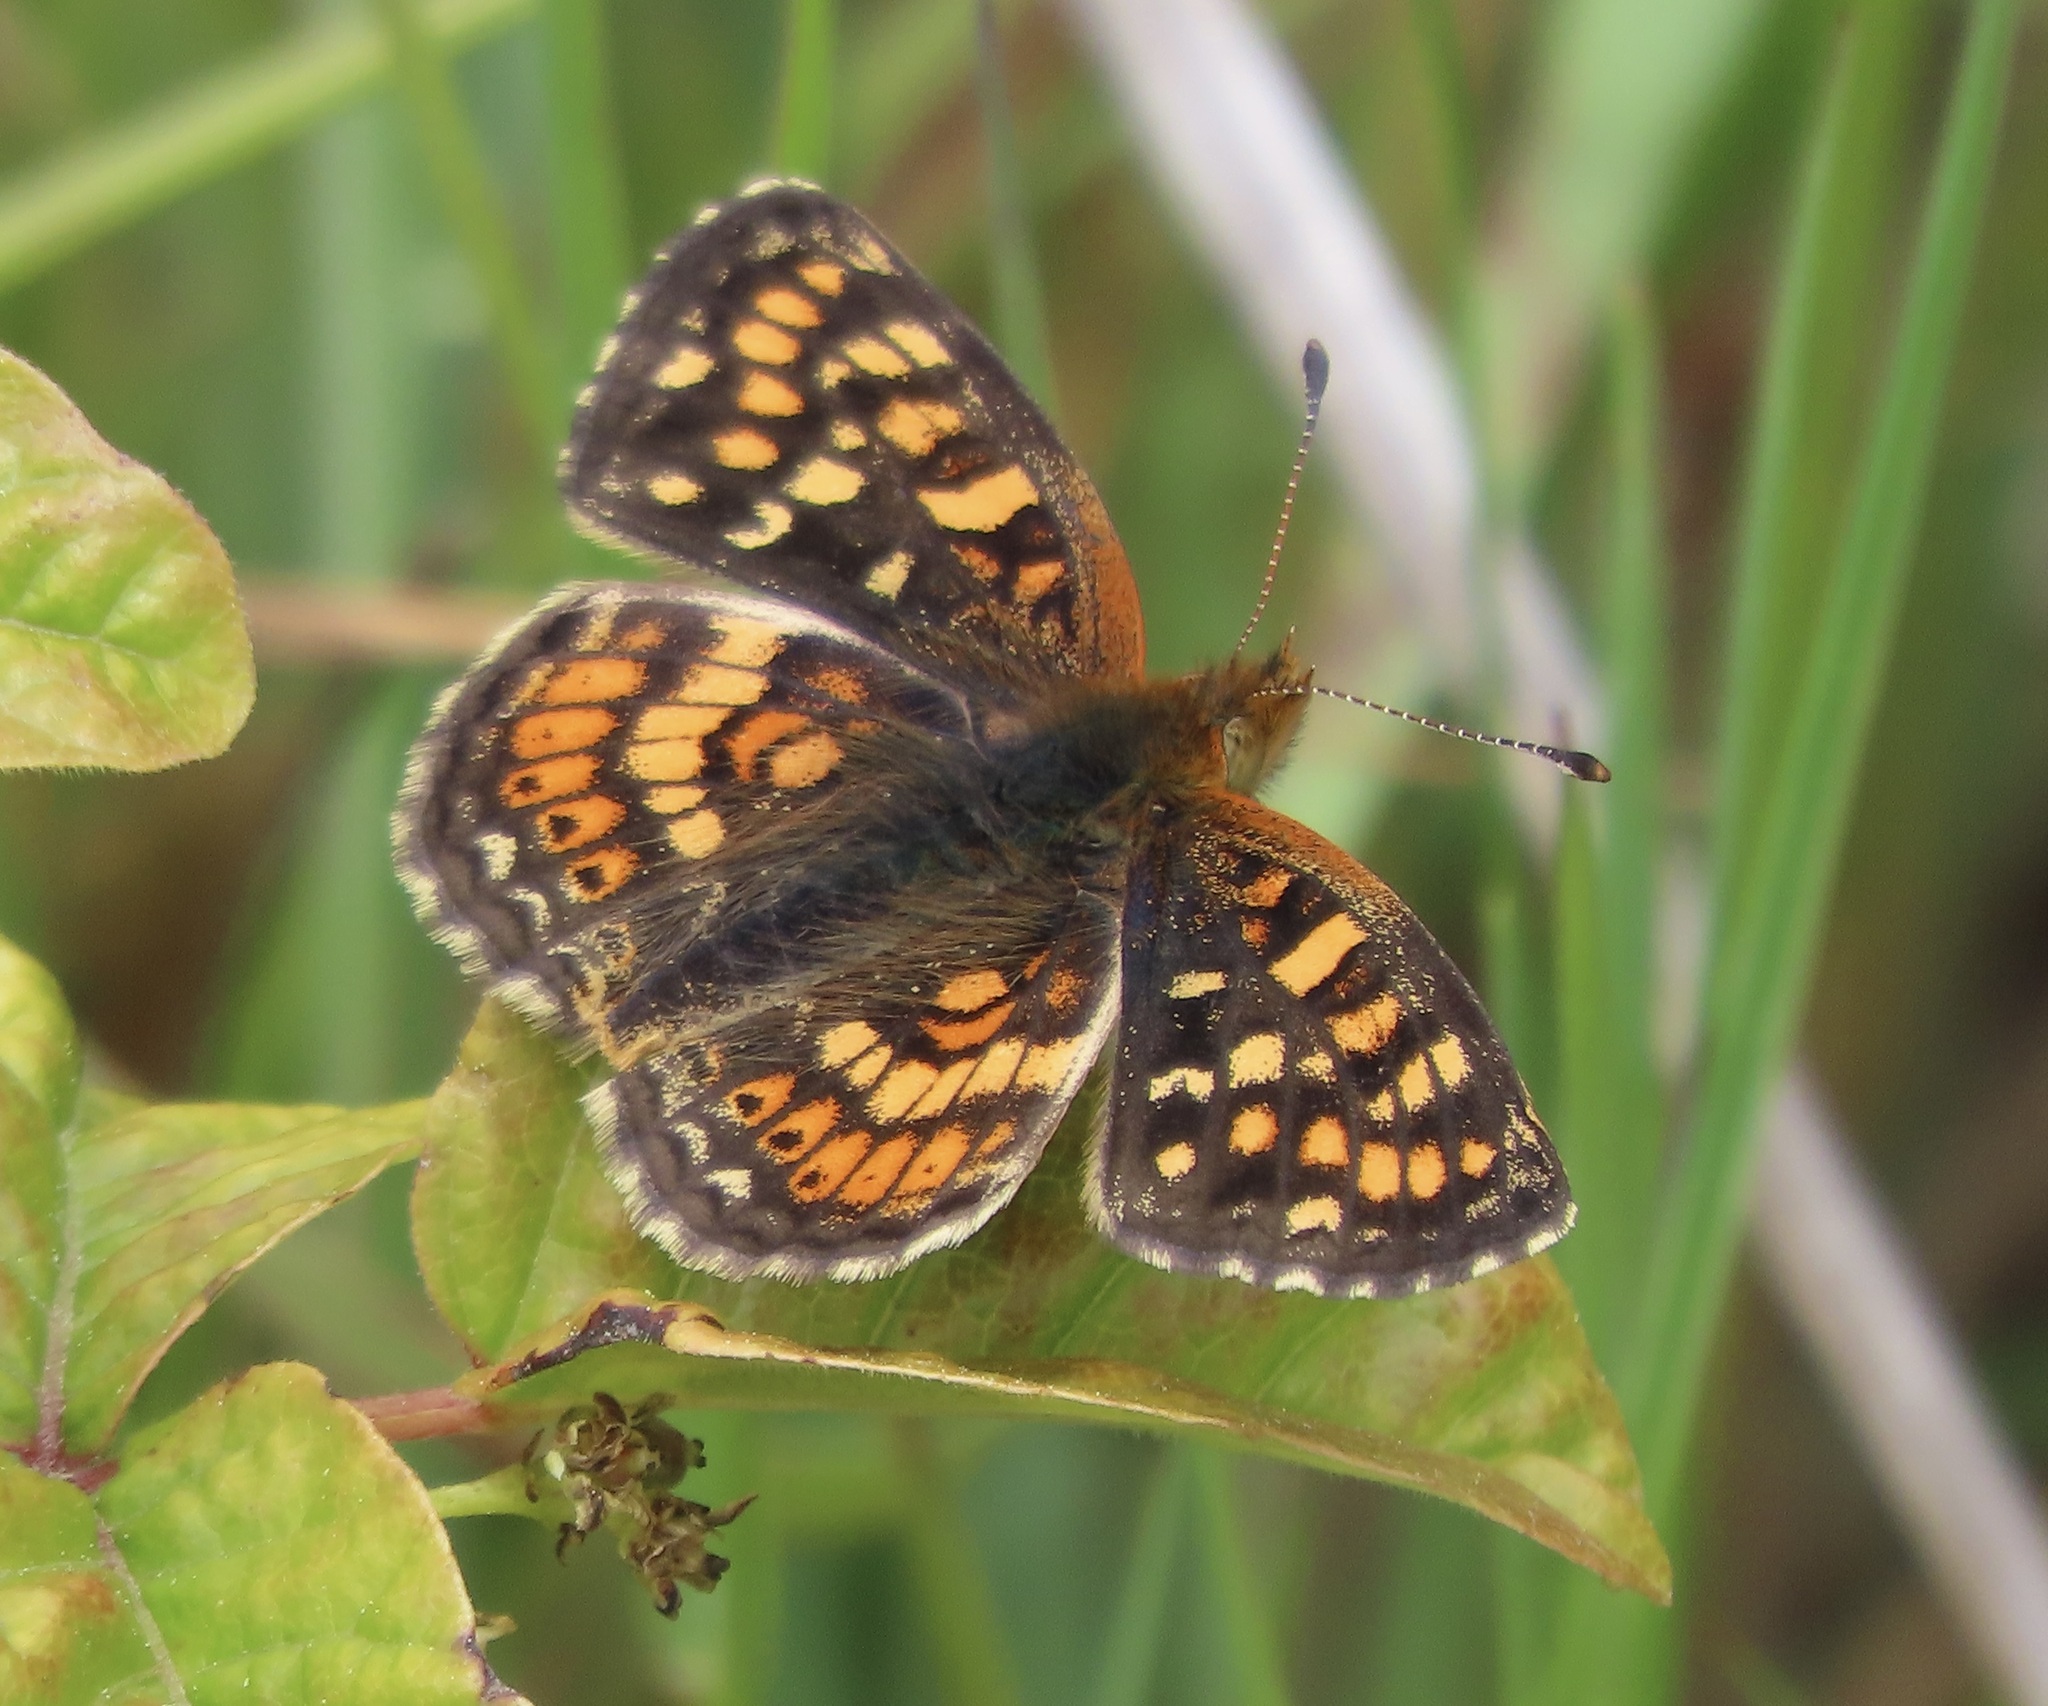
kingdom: Animalia
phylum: Arthropoda
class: Insecta
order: Lepidoptera
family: Nymphalidae
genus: Phyciodes
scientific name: Phyciodes tharos
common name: Pearl crescent
